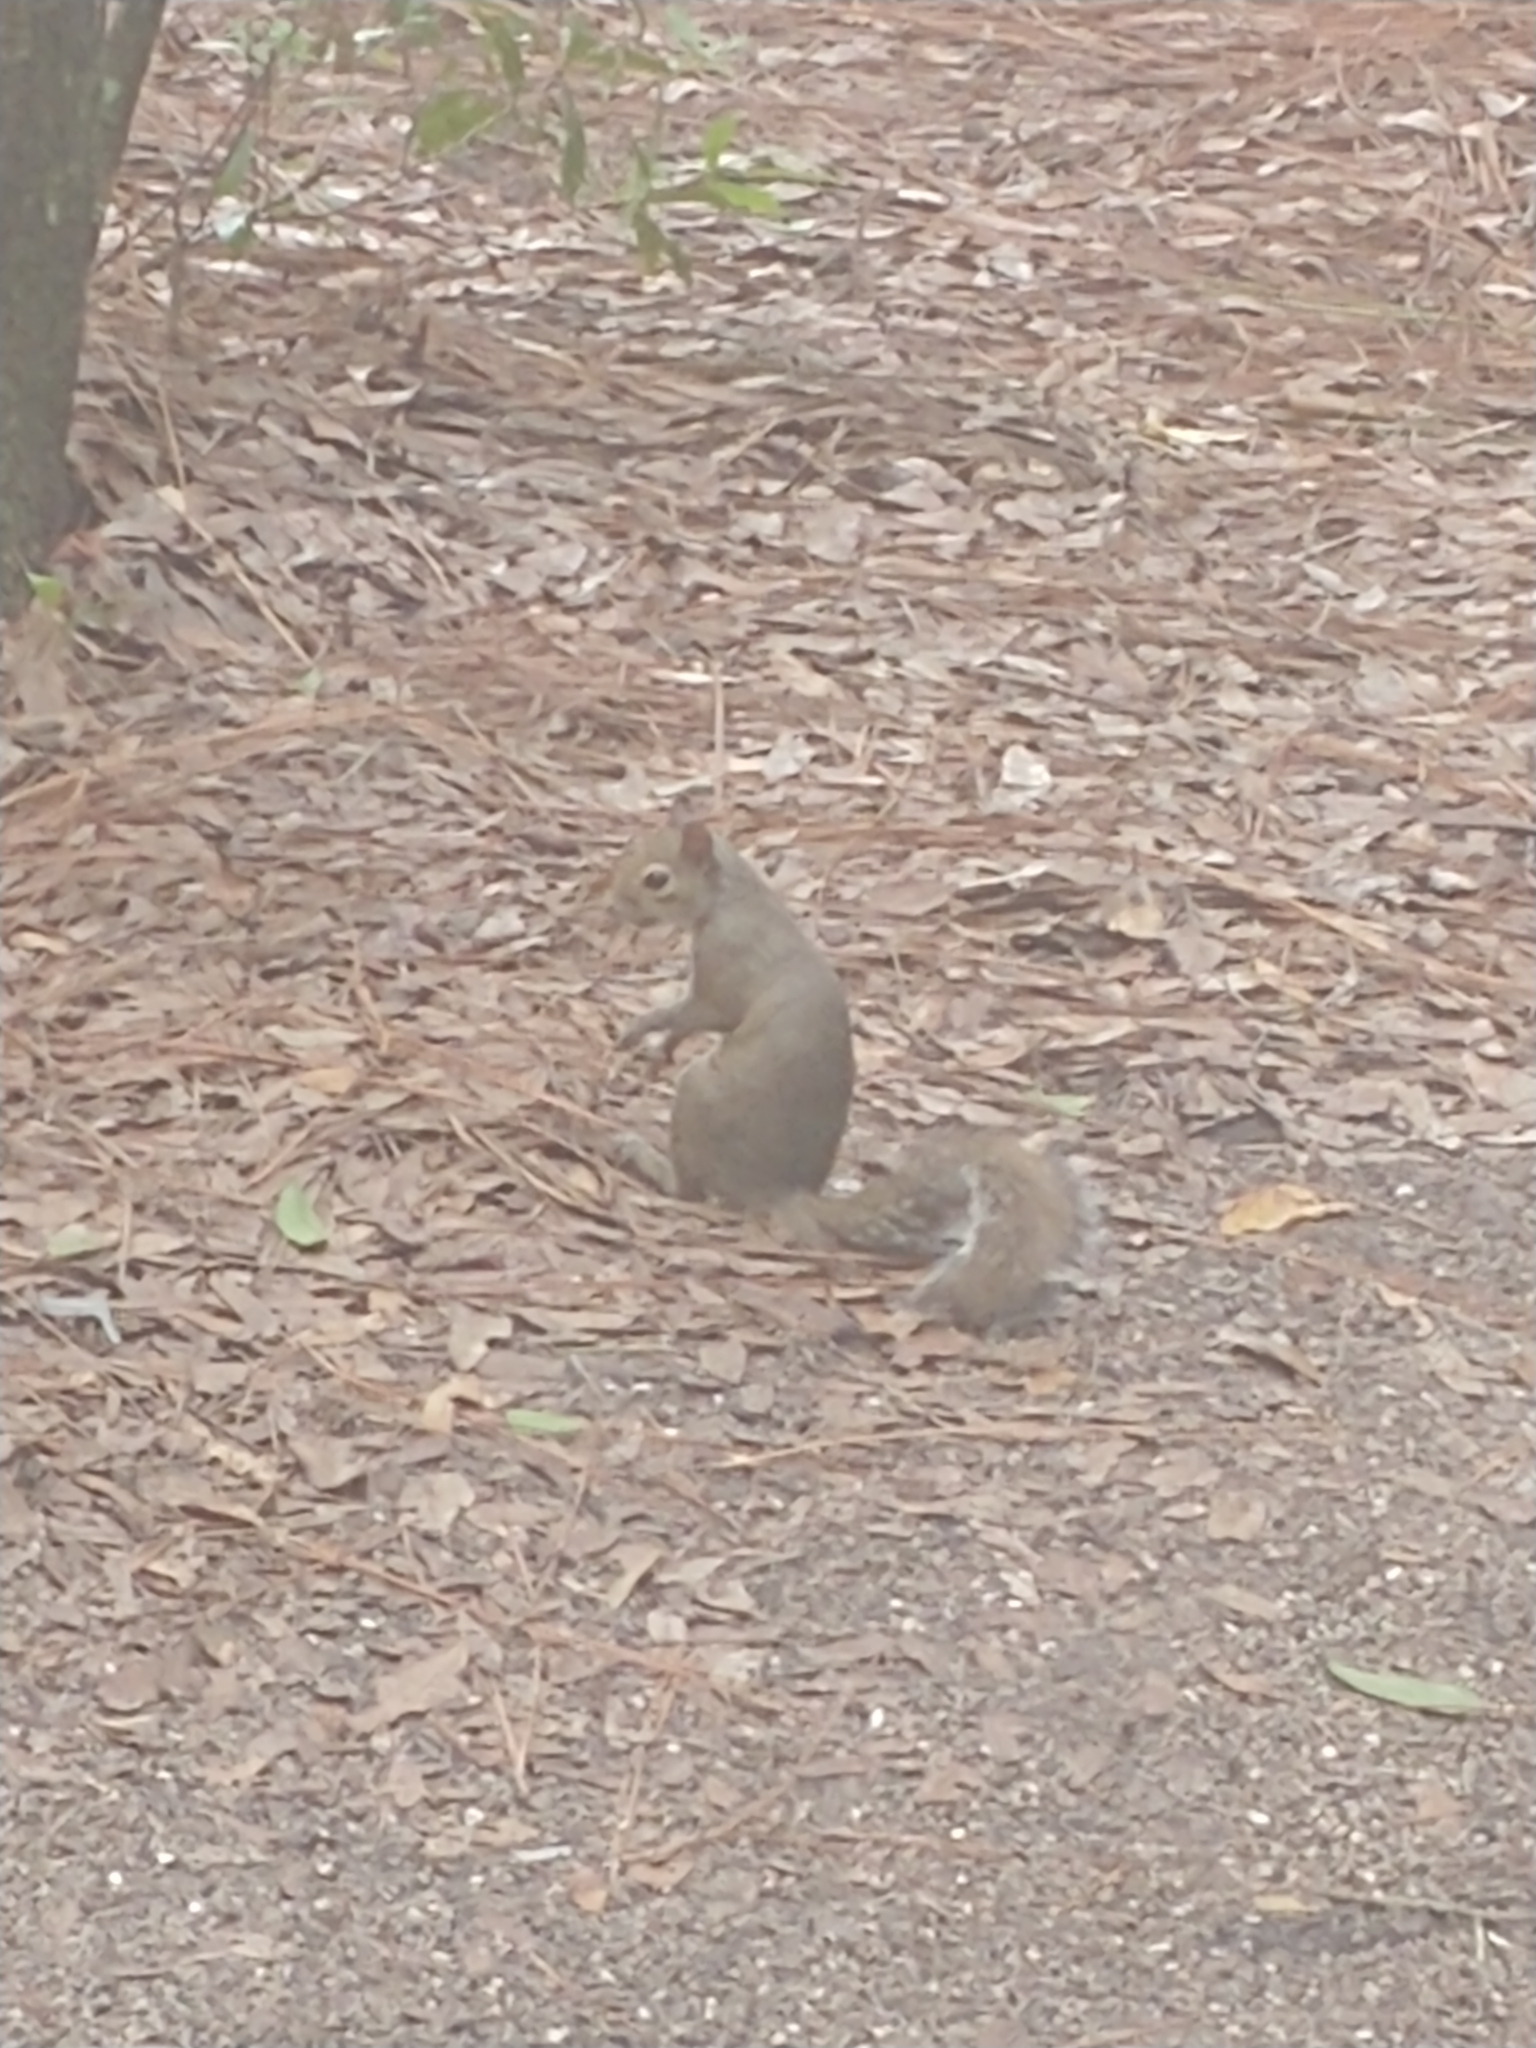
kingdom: Animalia
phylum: Chordata
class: Mammalia
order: Rodentia
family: Sciuridae
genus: Sciurus
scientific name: Sciurus carolinensis
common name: Eastern gray squirrel
